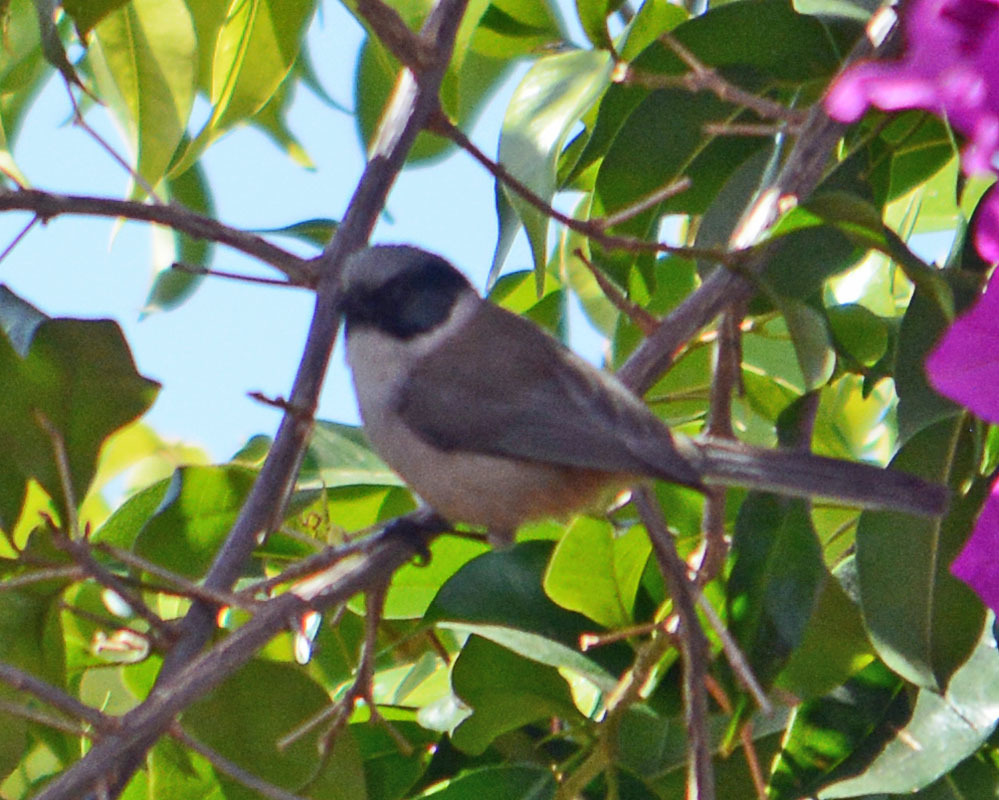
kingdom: Animalia
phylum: Chordata
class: Aves
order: Passeriformes
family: Aegithalidae
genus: Psaltriparus
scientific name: Psaltriparus minimus
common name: American bushtit
